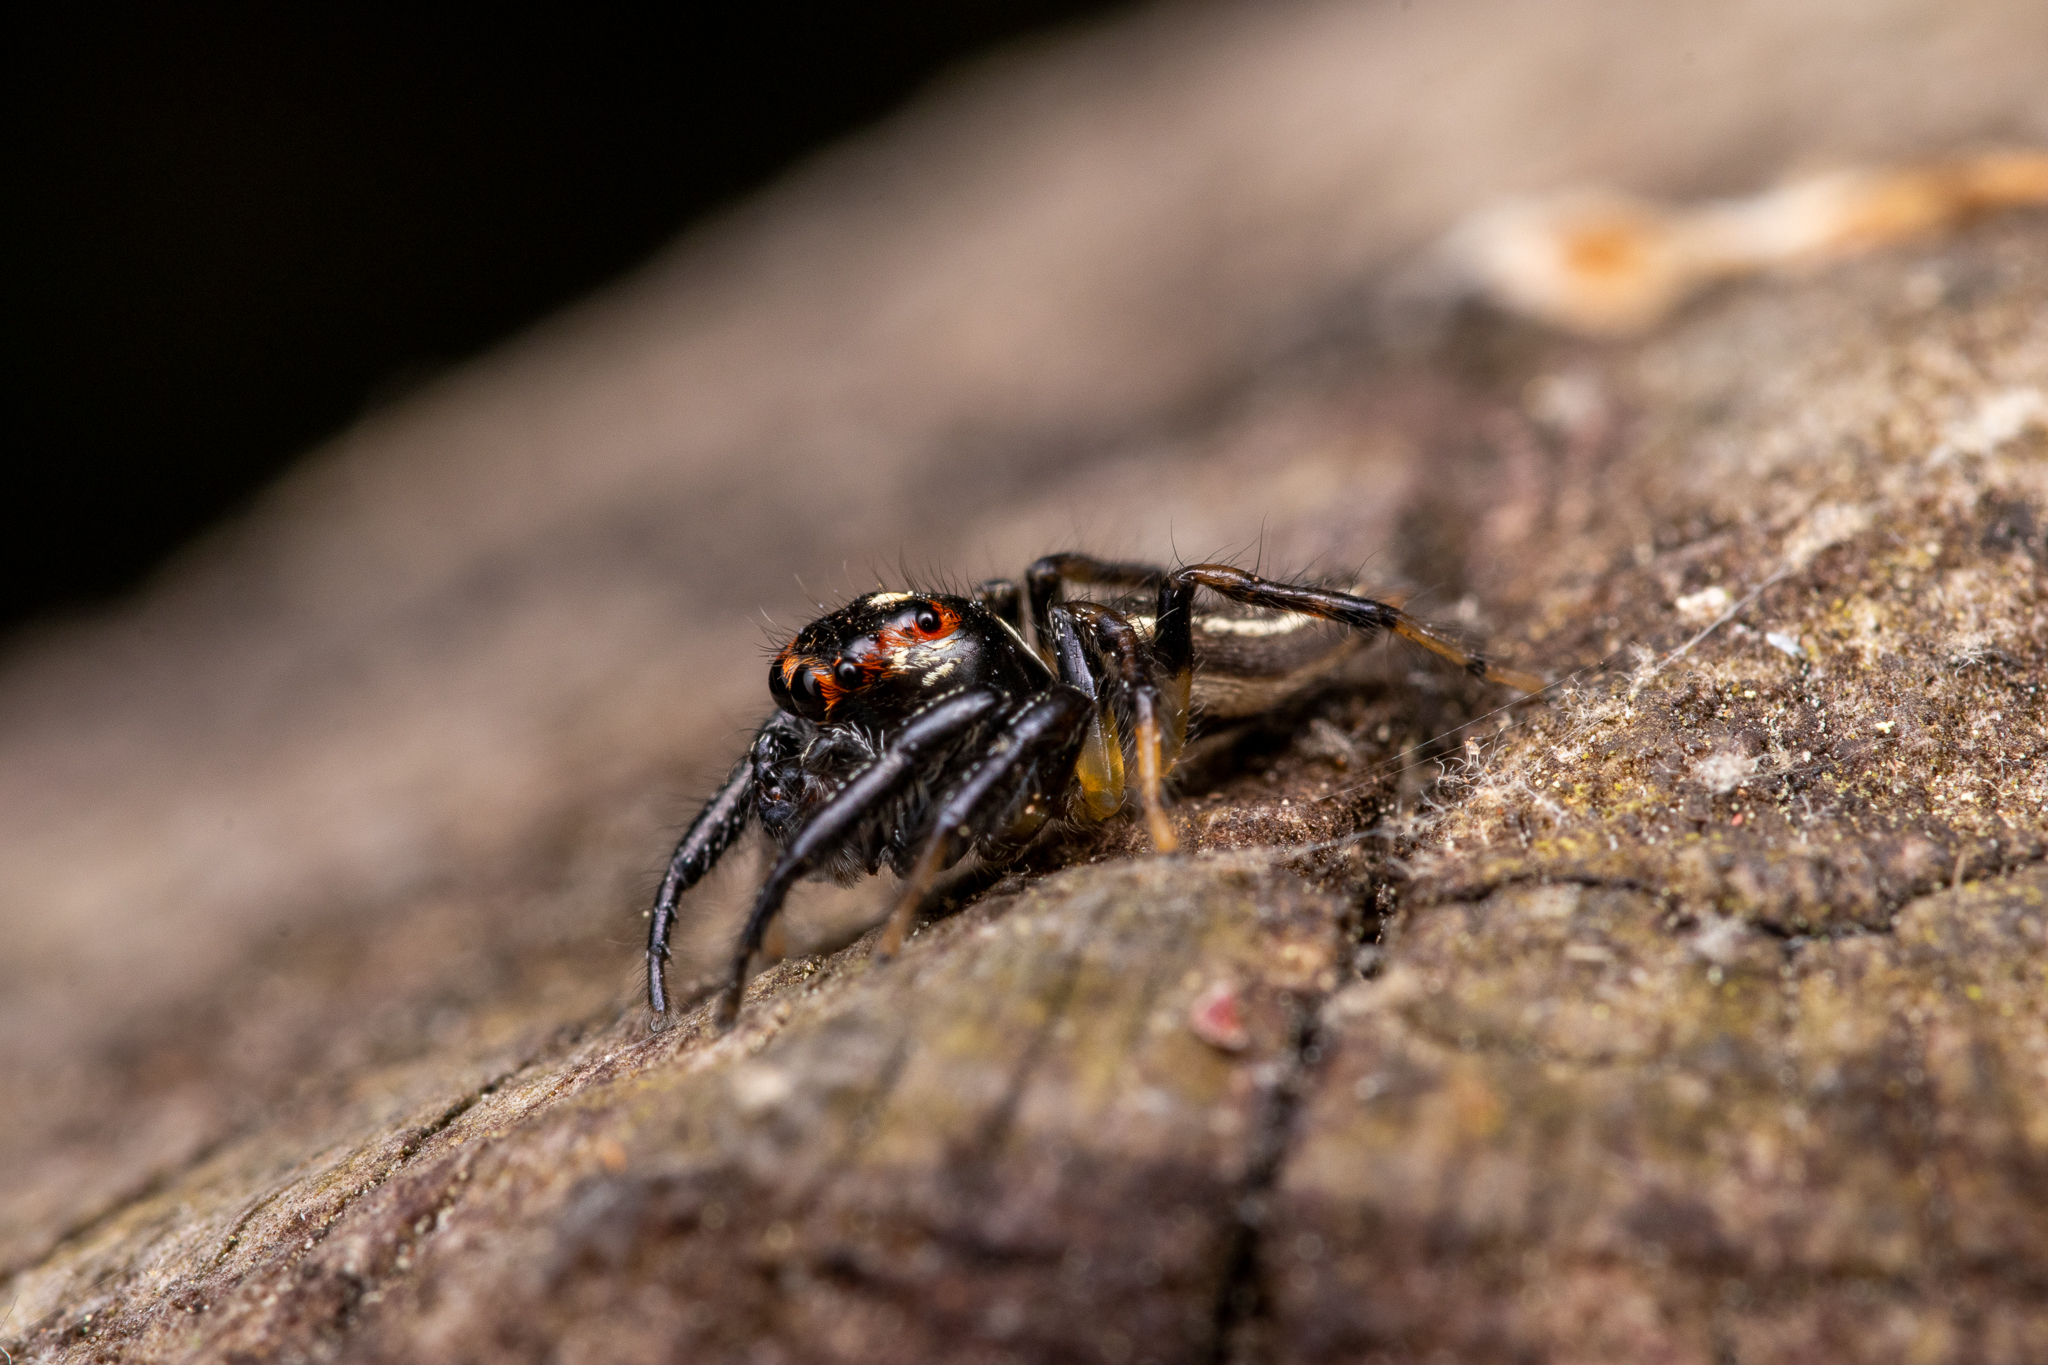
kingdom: Animalia
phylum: Arthropoda
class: Arachnida
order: Araneae
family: Salticidae
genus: Colonus
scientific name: Colonus sylvanus
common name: Jumping spiders
